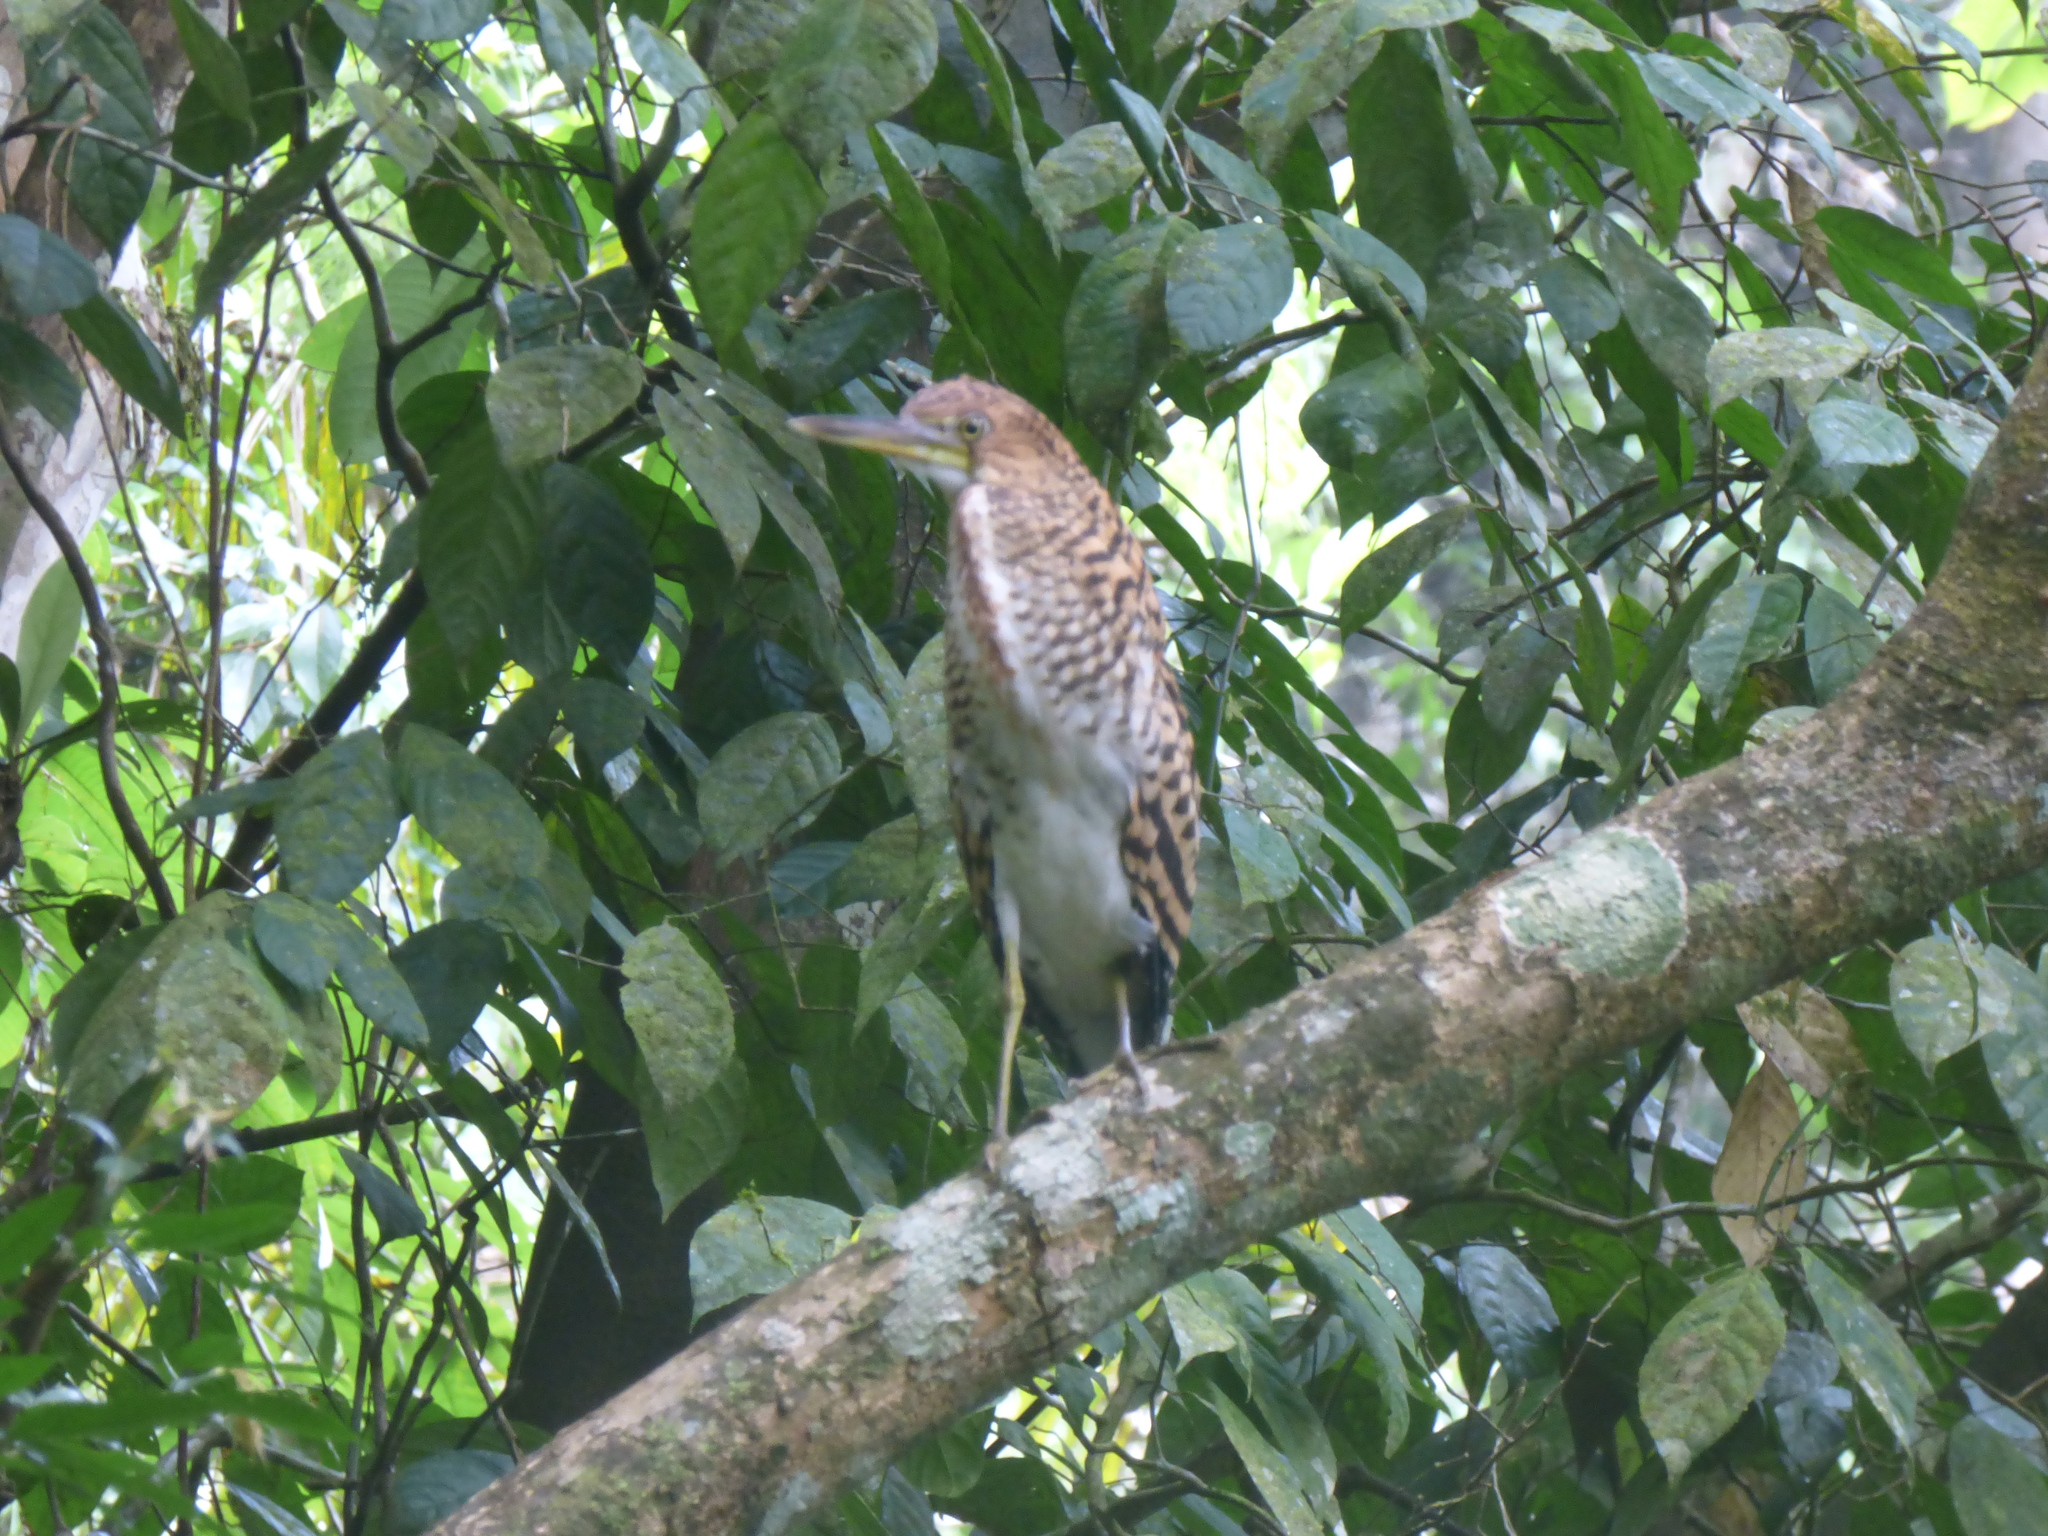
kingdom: Animalia
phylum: Chordata
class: Aves
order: Pelecaniformes
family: Ardeidae
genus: Tigrisoma
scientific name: Tigrisoma lineatum
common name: Rufescent tiger-heron
